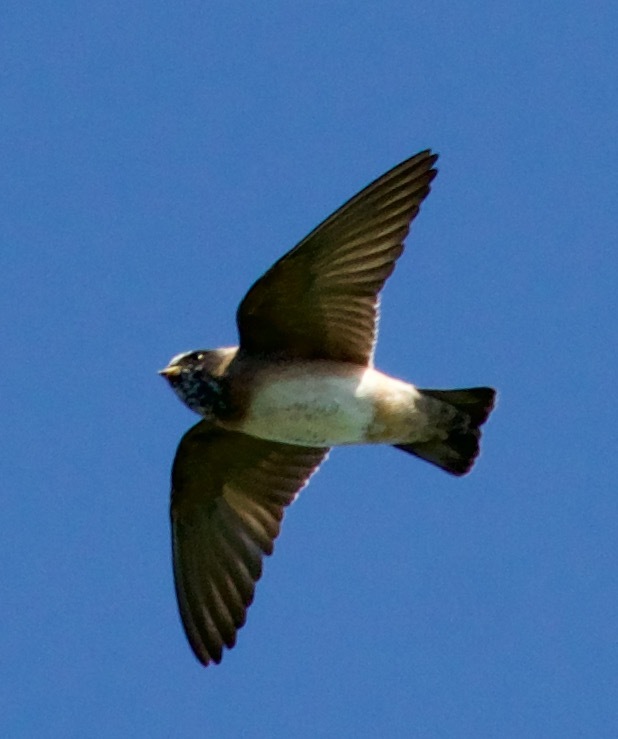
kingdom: Animalia
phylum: Chordata
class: Aves
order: Passeriformes
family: Hirundinidae
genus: Petrochelidon
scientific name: Petrochelidon pyrrhonota
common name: American cliff swallow
